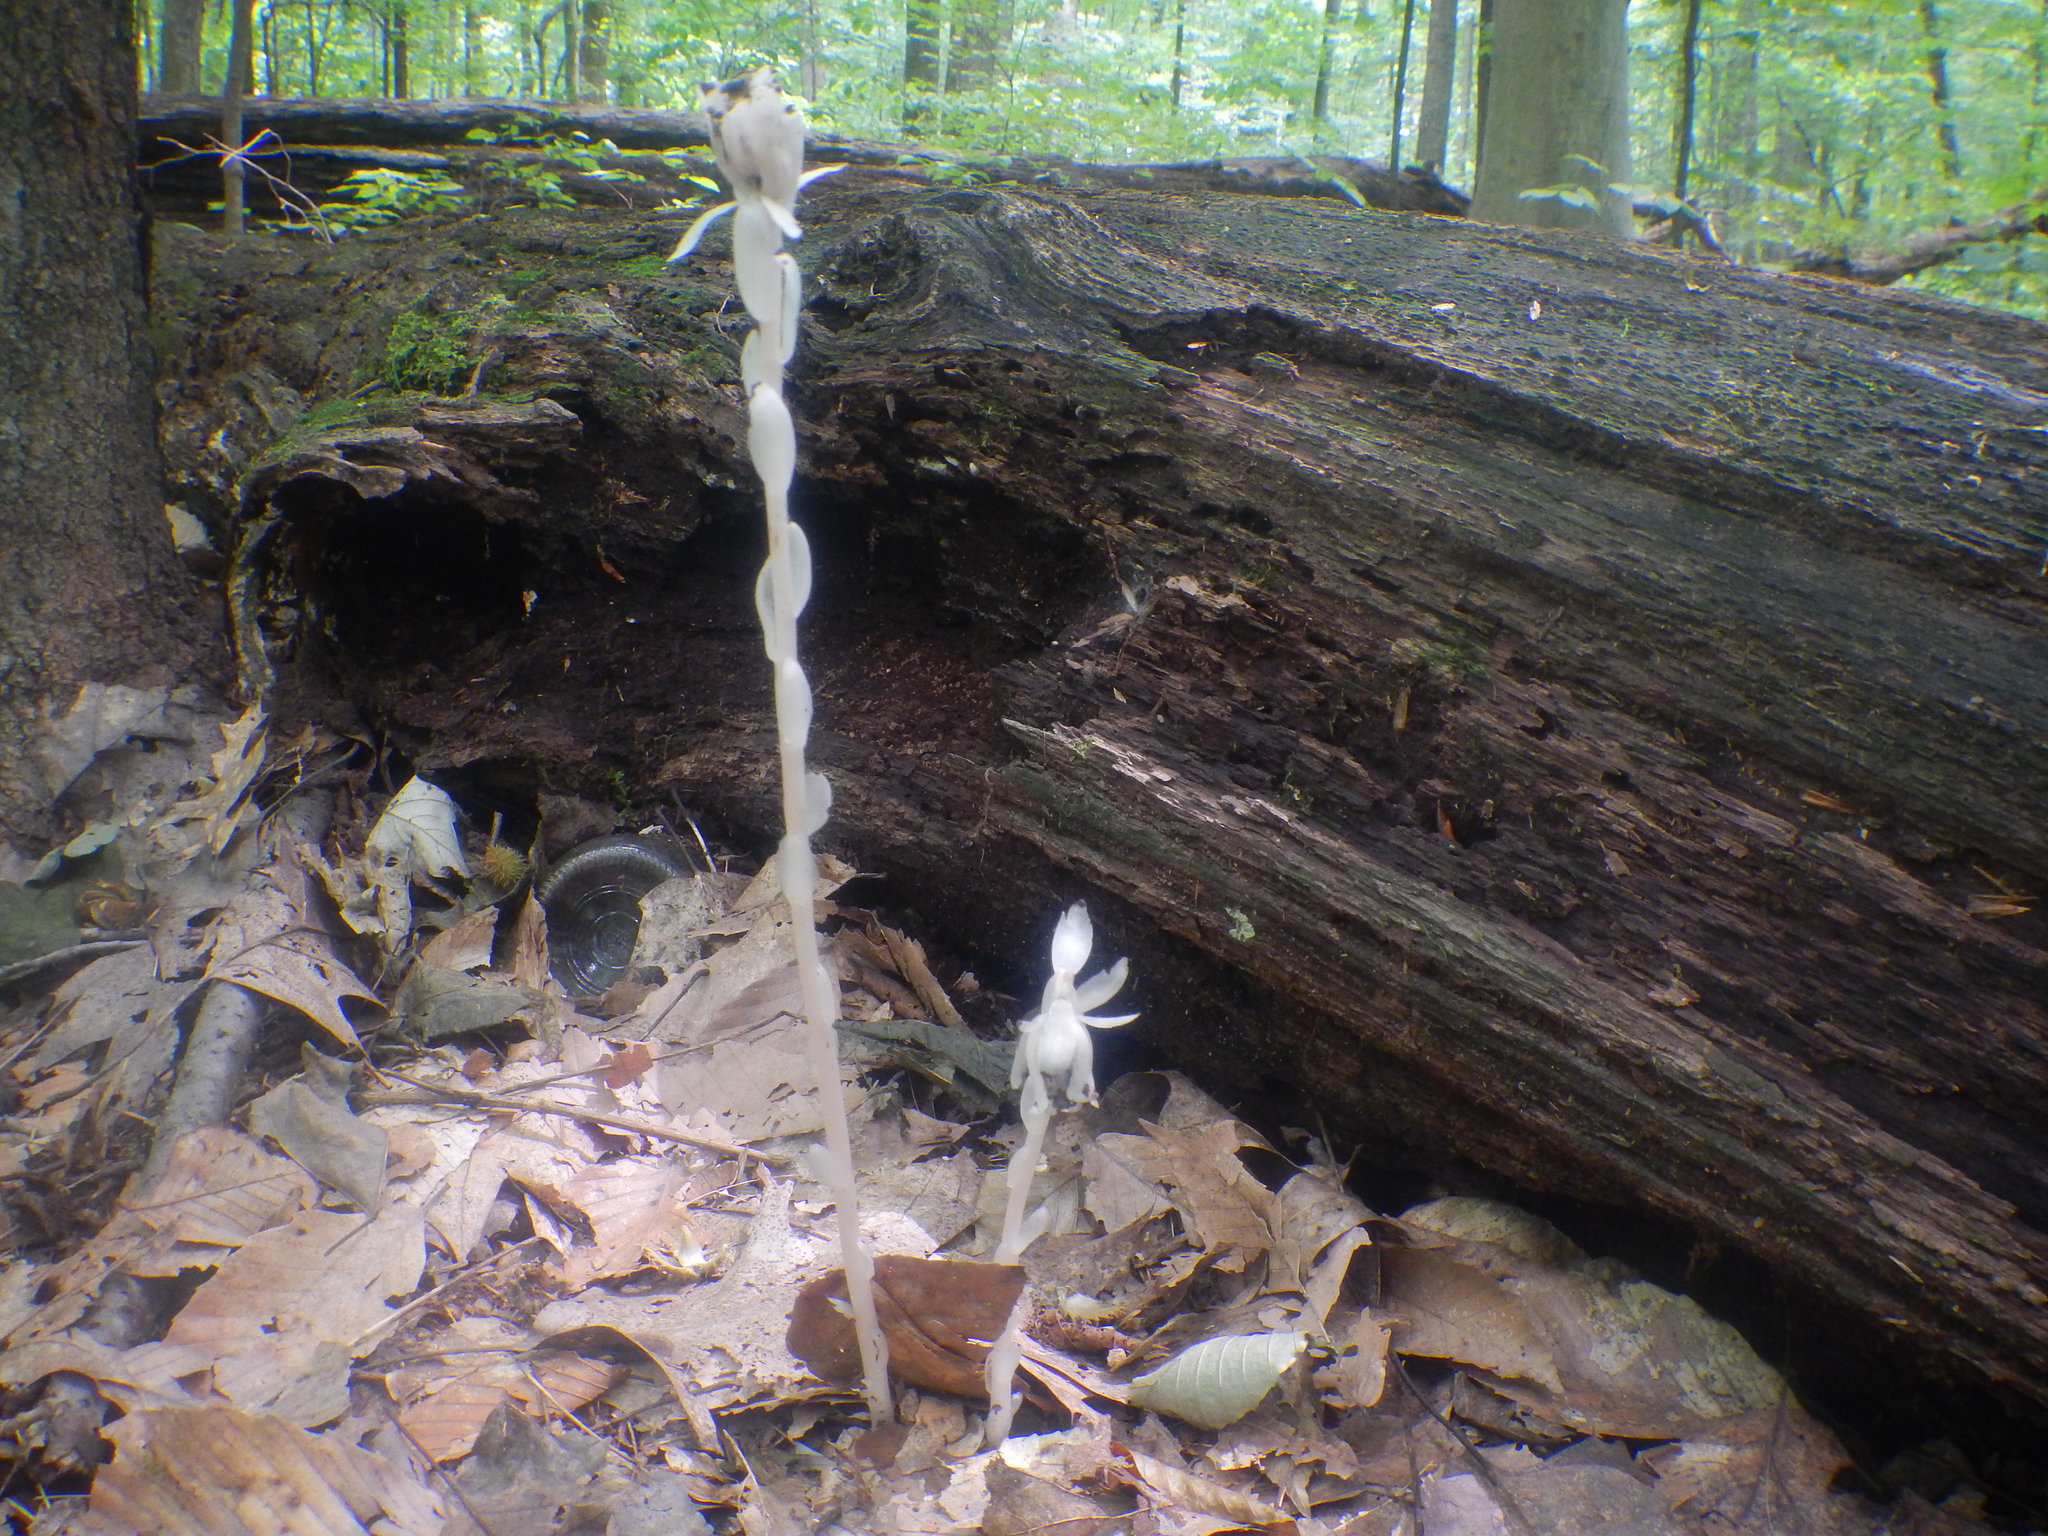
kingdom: Plantae
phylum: Tracheophyta
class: Magnoliopsida
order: Ericales
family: Ericaceae
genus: Monotropa
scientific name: Monotropa uniflora
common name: Convulsion root
